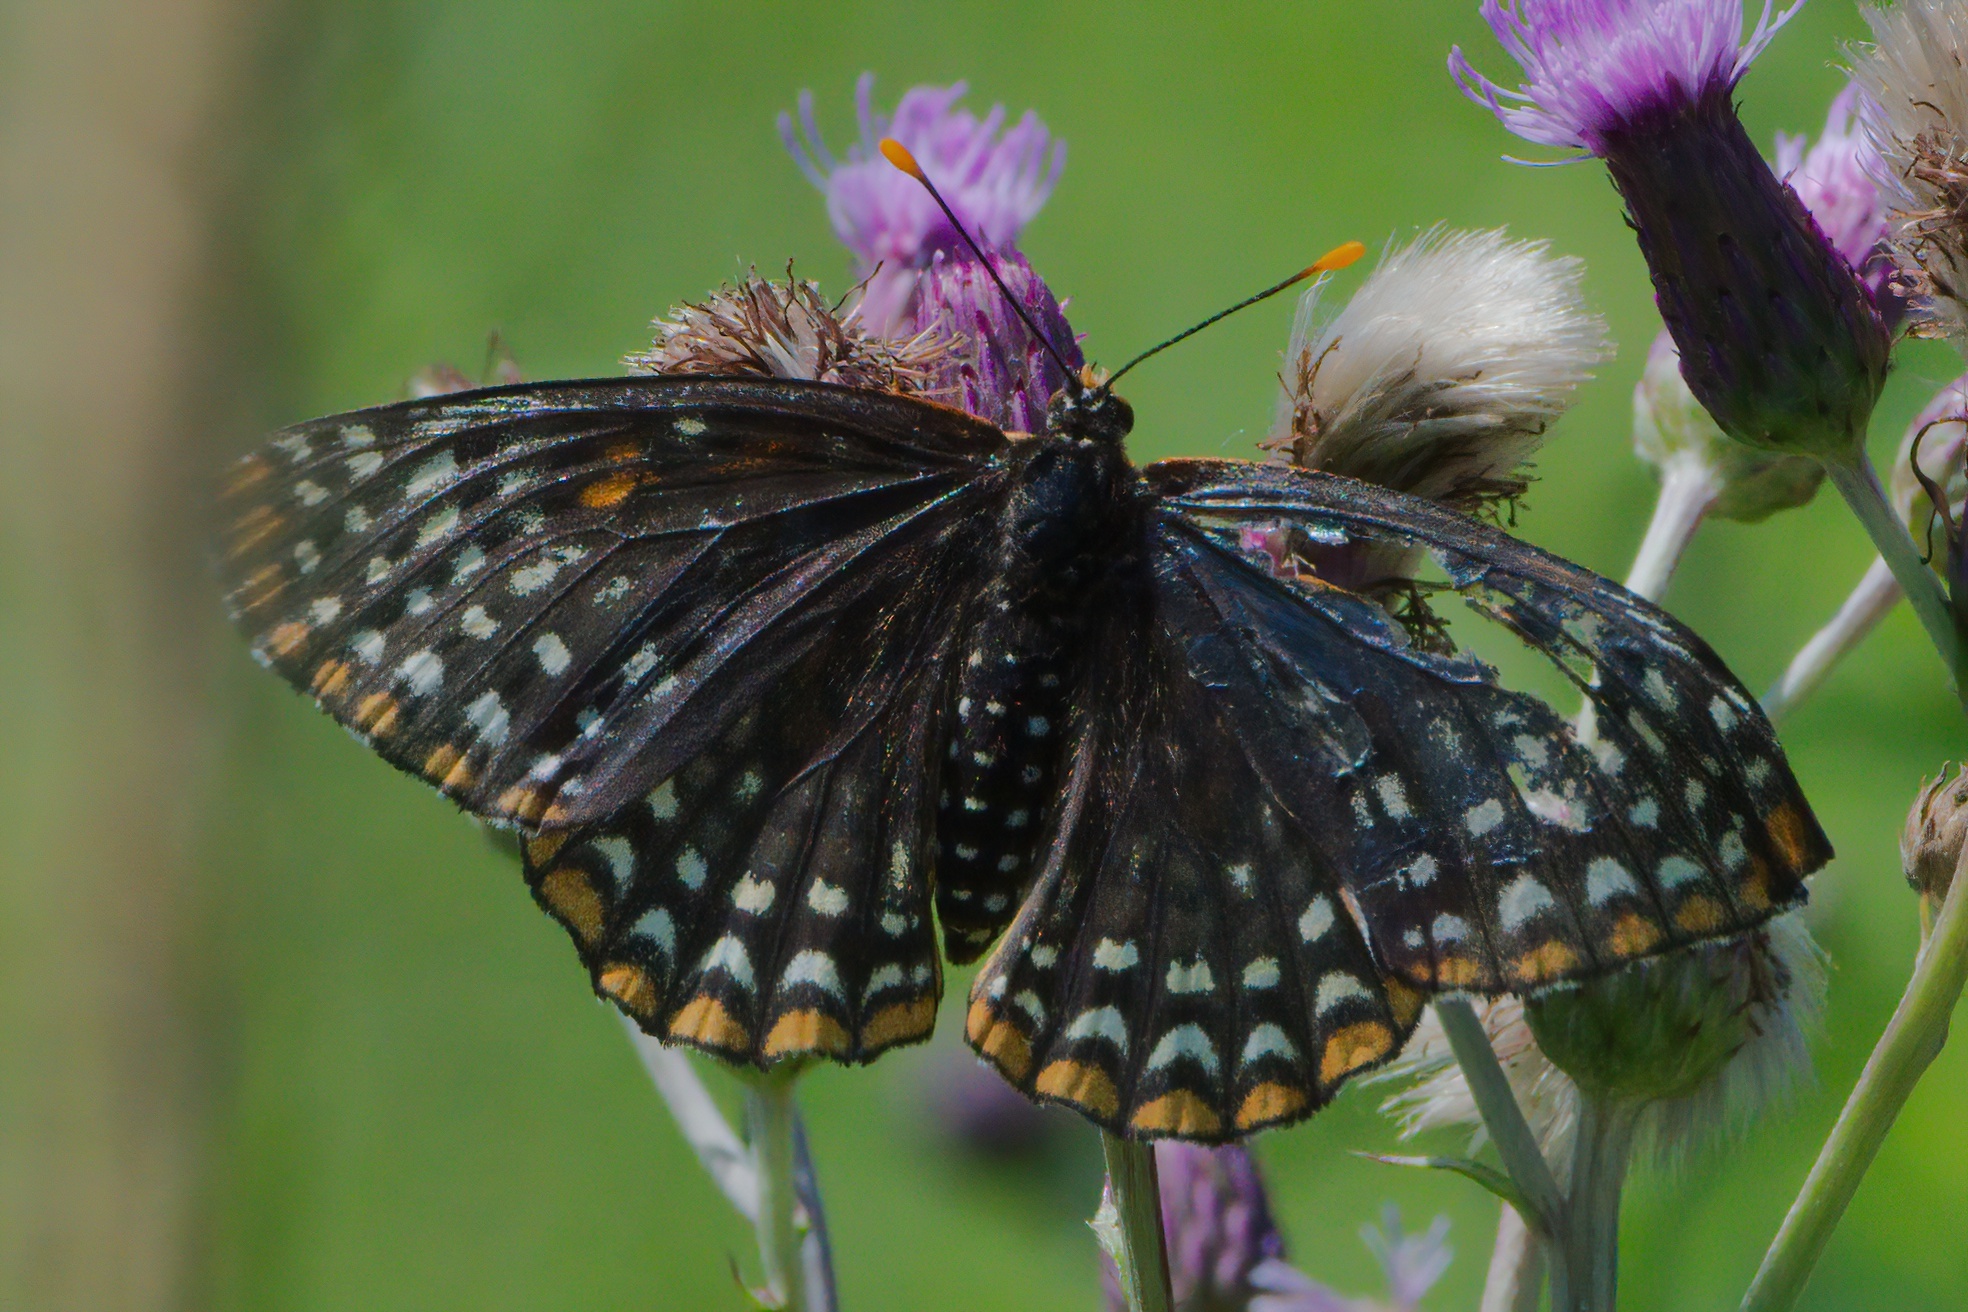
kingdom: Animalia
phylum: Arthropoda
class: Insecta
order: Lepidoptera
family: Nymphalidae
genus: Euphydryas
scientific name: Euphydryas phaeton
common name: Baltimore checkerspot
